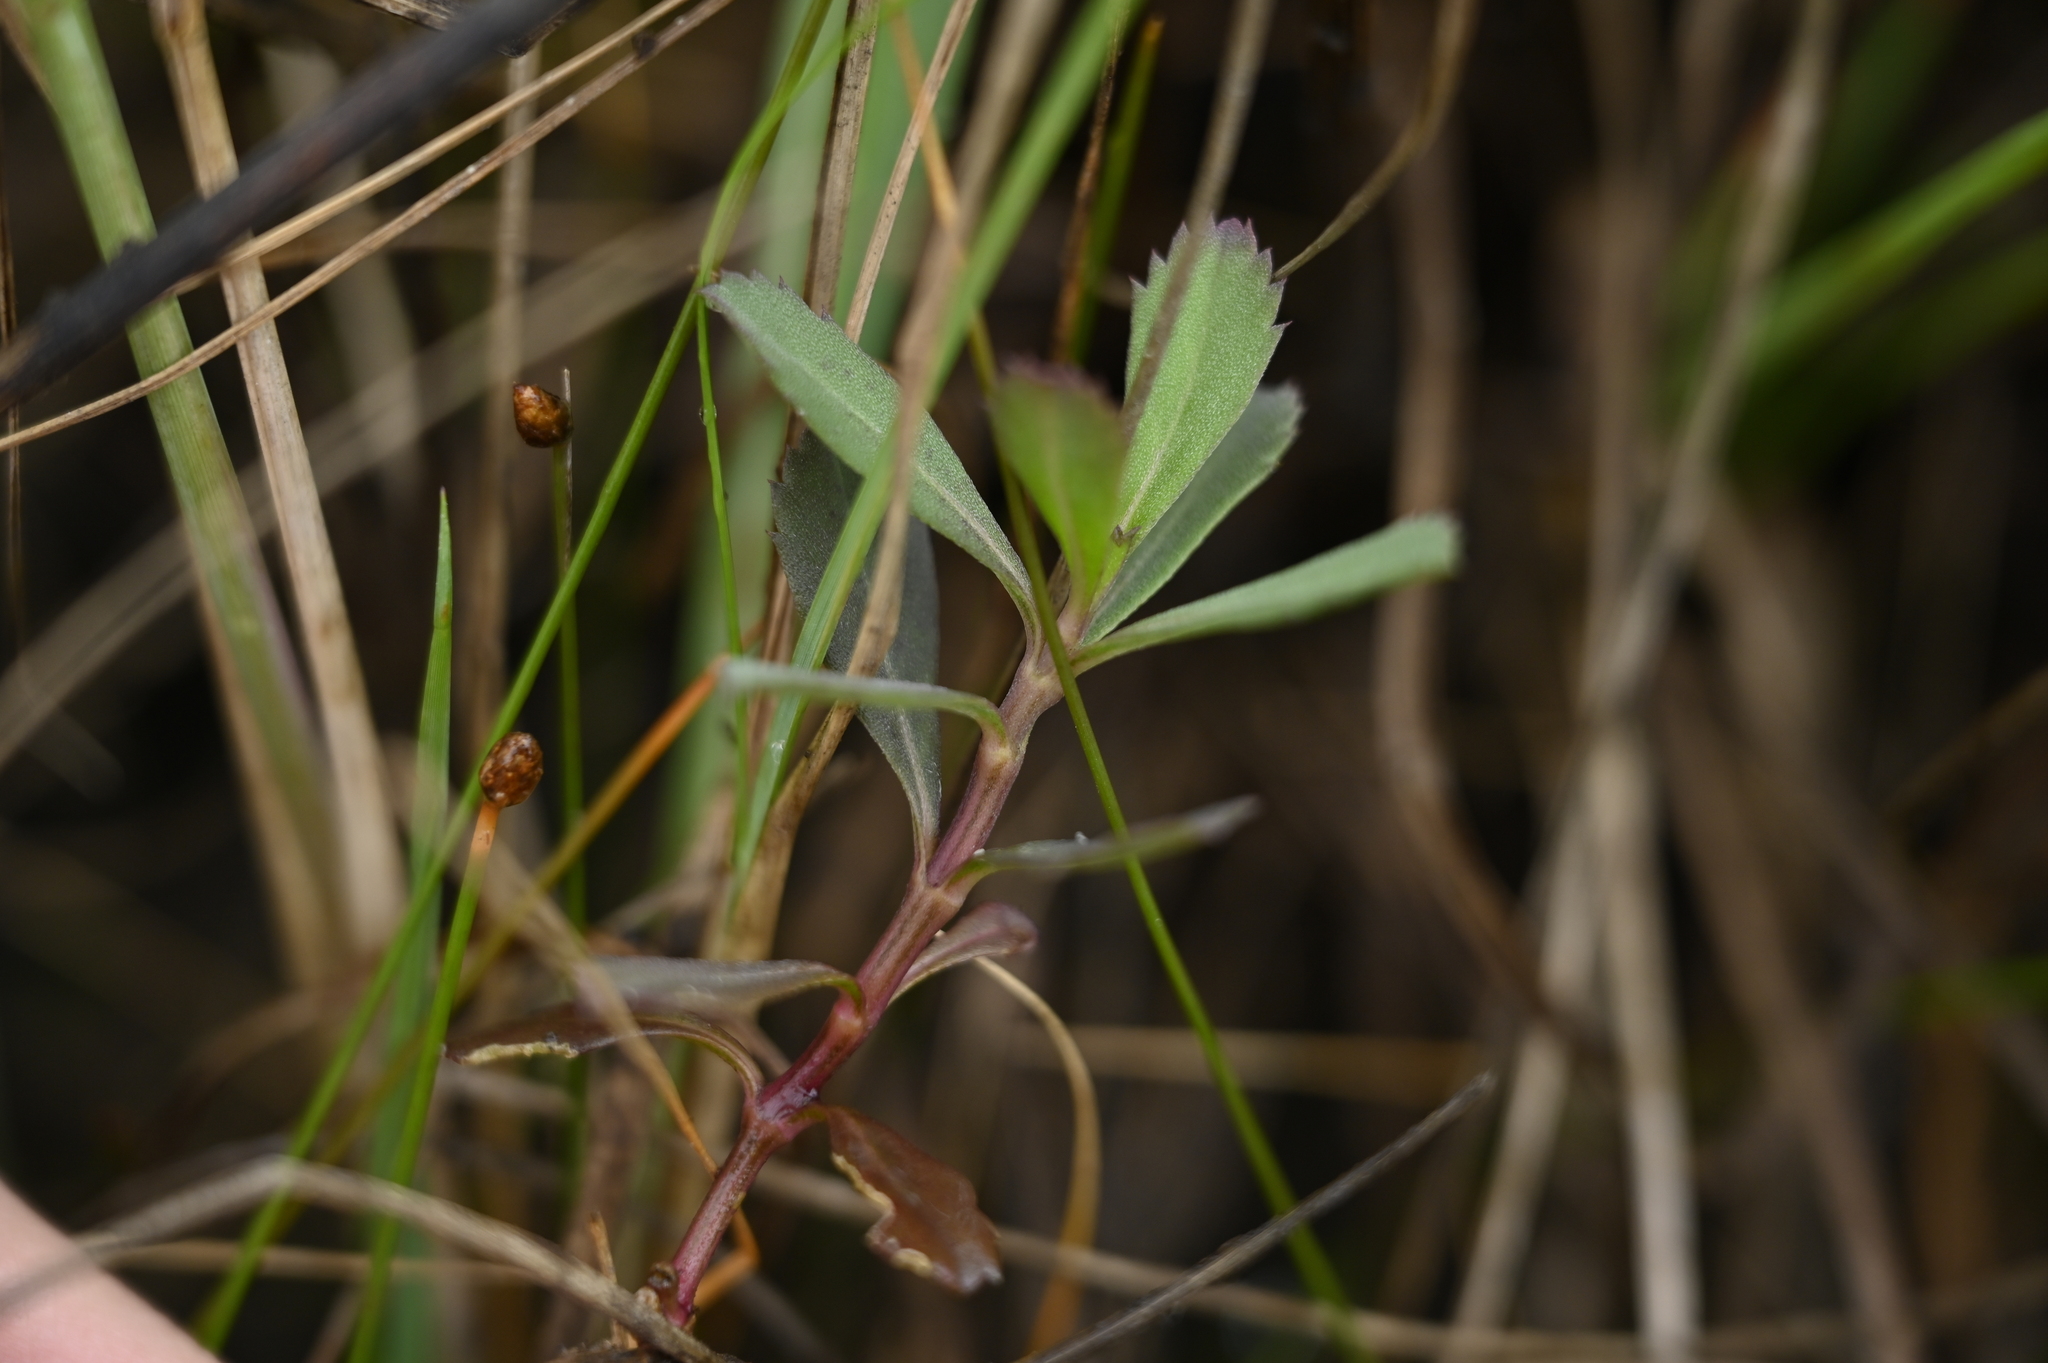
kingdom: Plantae
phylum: Tracheophyta
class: Magnoliopsida
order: Lamiales
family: Verbenaceae
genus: Phyla
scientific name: Phyla nodiflora
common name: Frogfruit
